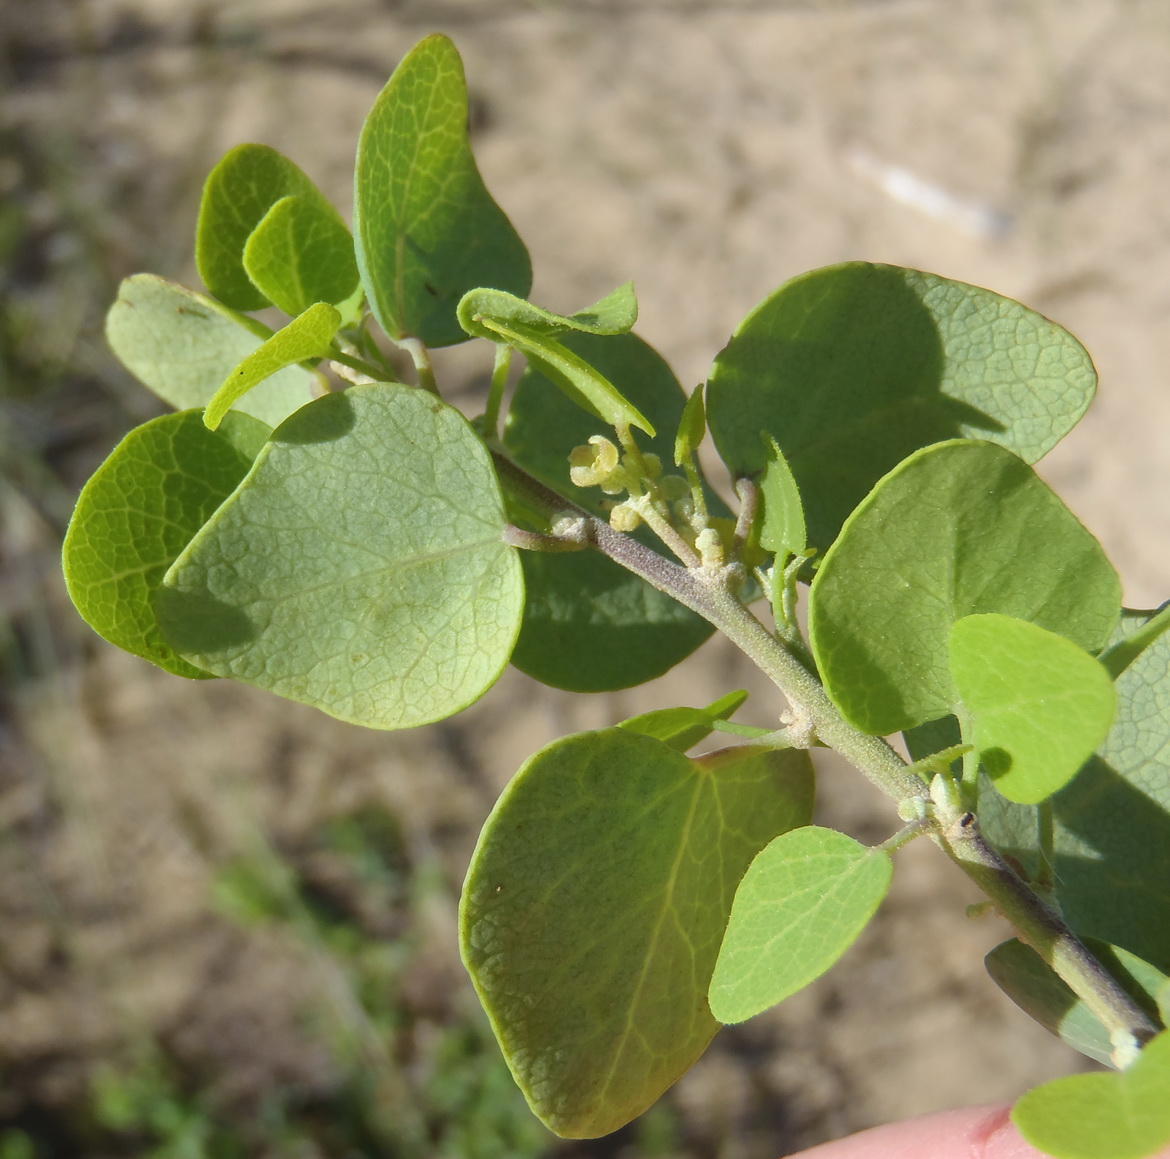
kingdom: Plantae
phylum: Tracheophyta
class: Magnoliopsida
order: Ranunculales
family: Menispermaceae
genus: Cissampelos
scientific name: Cissampelos capensis
